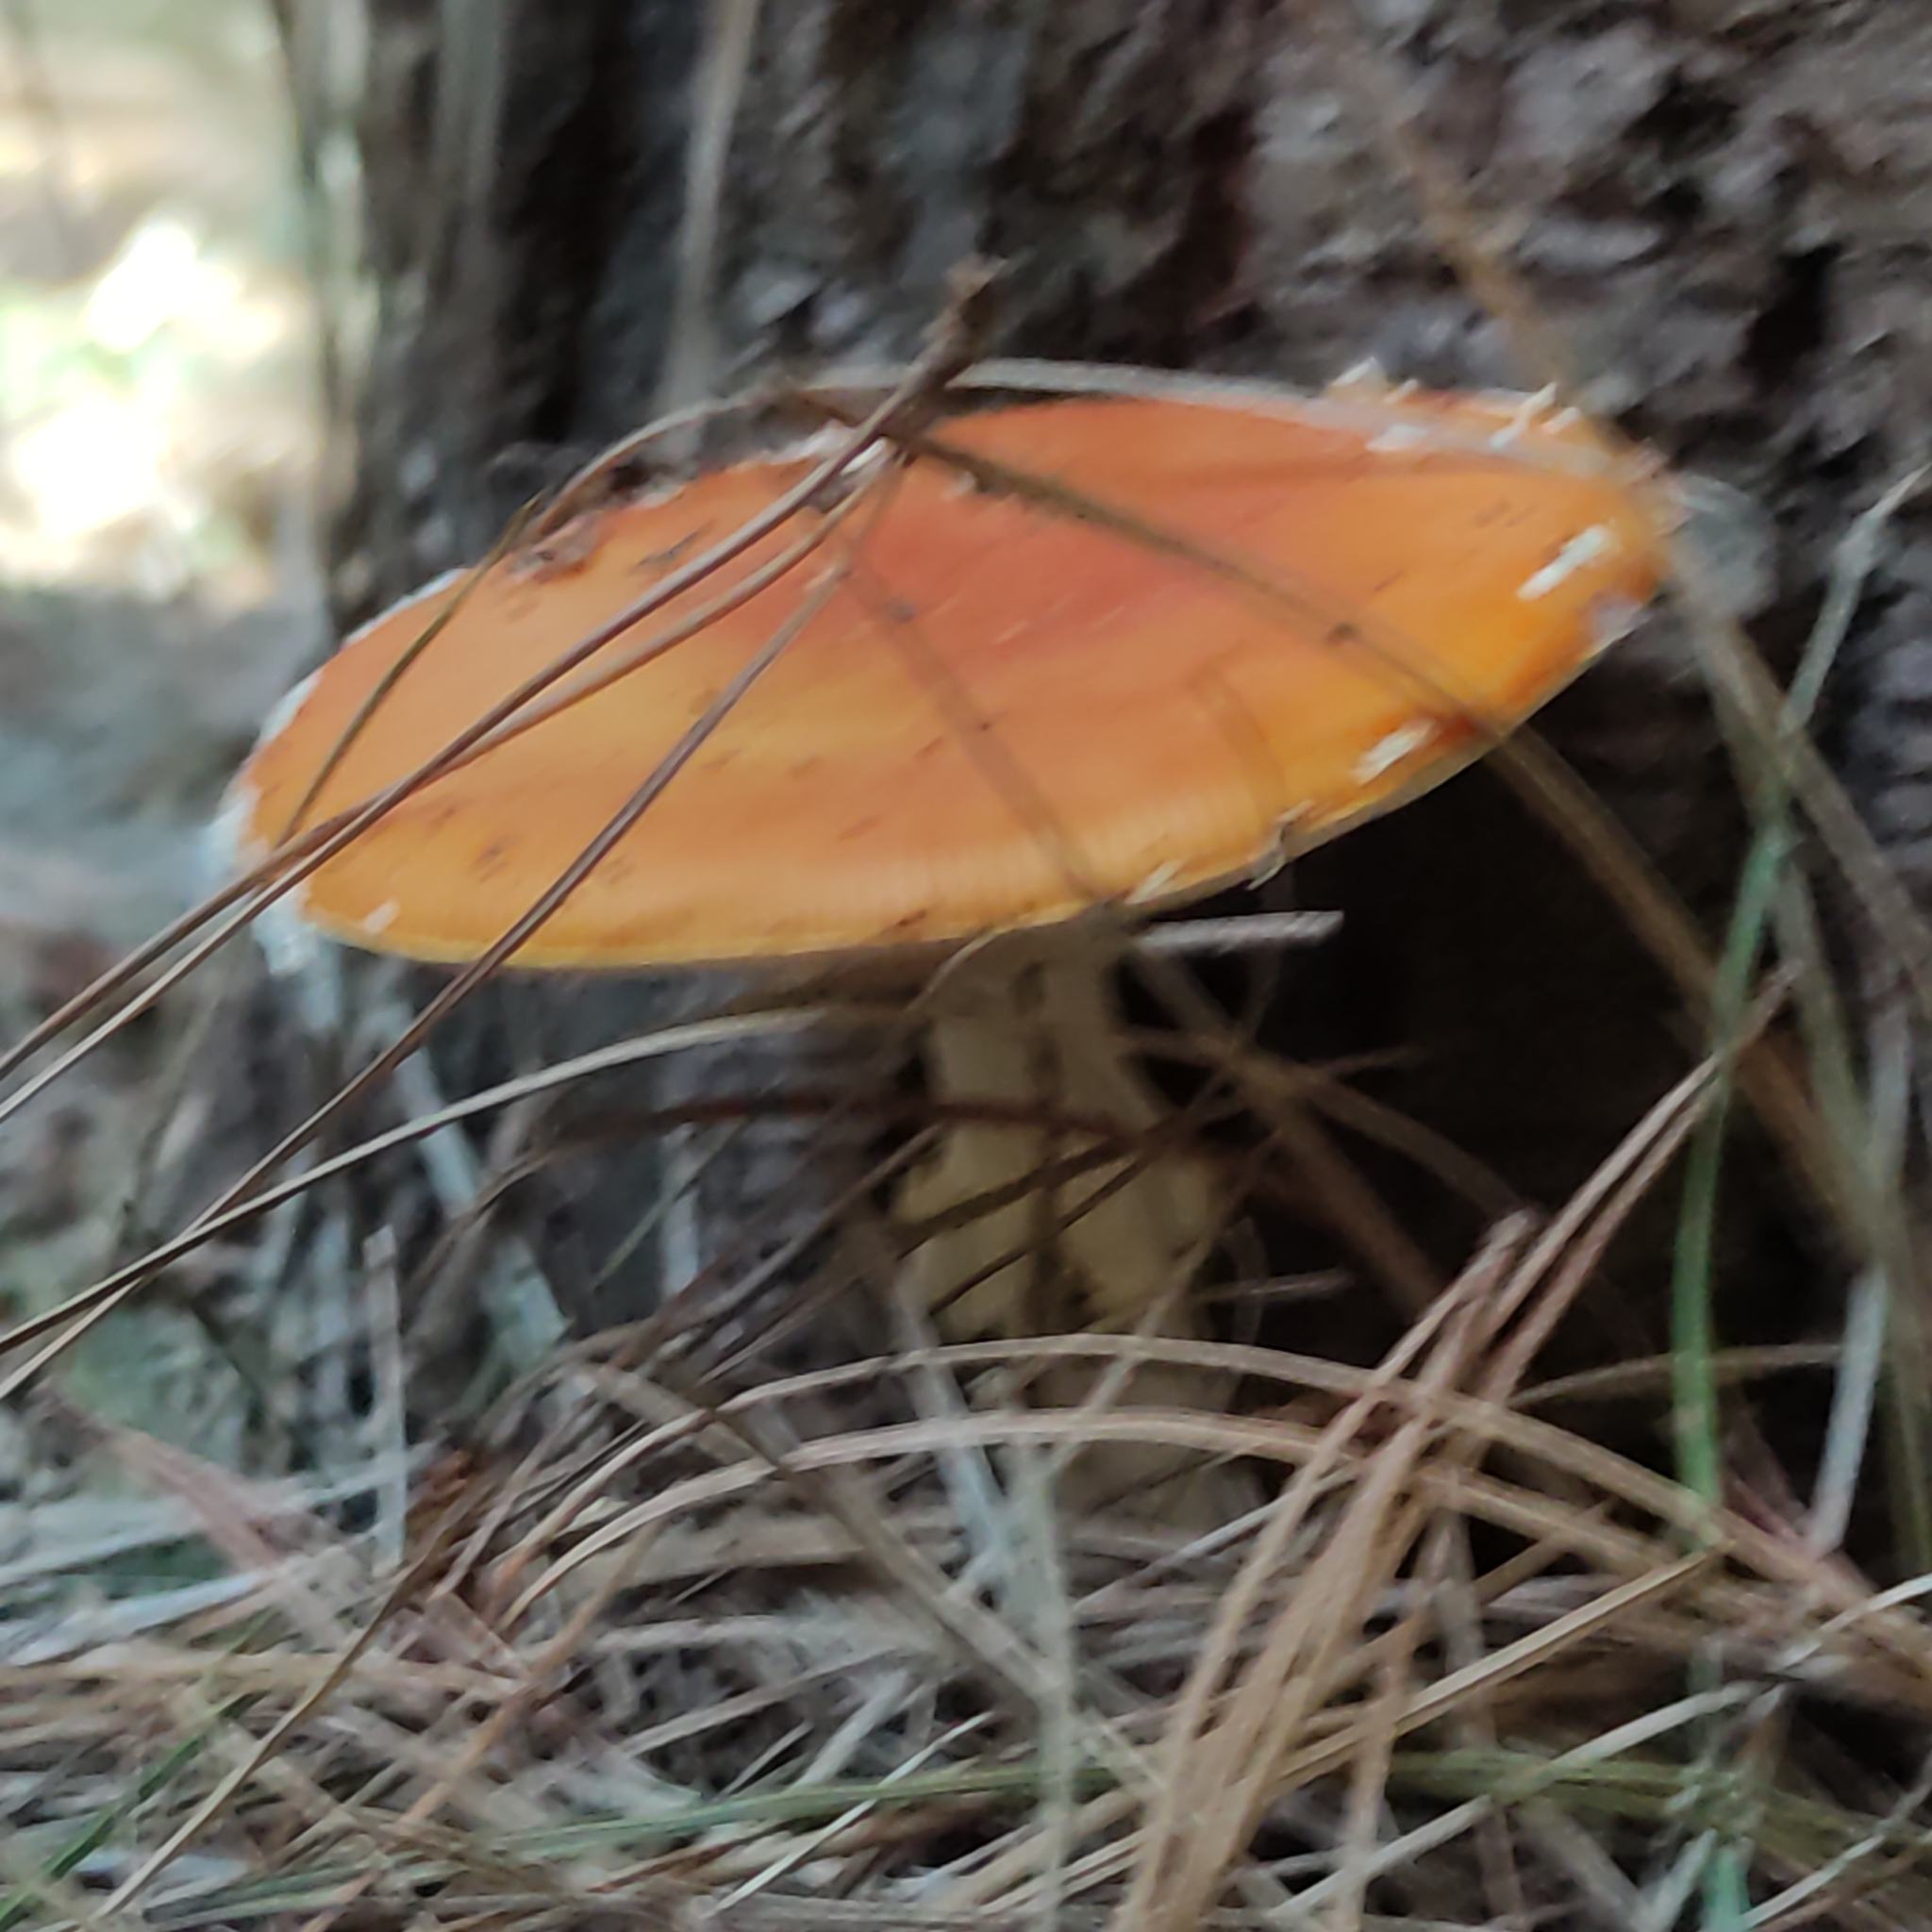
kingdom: Fungi
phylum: Basidiomycota
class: Agaricomycetes
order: Agaricales
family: Amanitaceae
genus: Amanita
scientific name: Amanita muscaria
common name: Fly agaric
